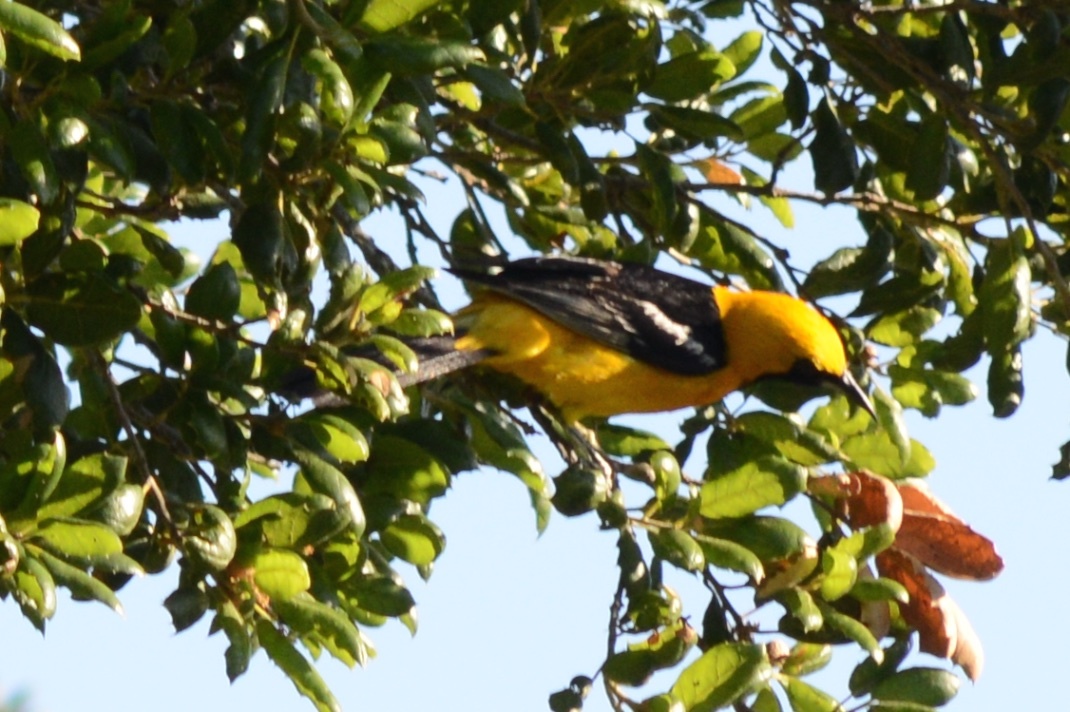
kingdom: Animalia
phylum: Chordata
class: Aves
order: Passeriformes
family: Icteridae
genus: Icterus
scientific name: Icterus cucullatus
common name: Hooded oriole
